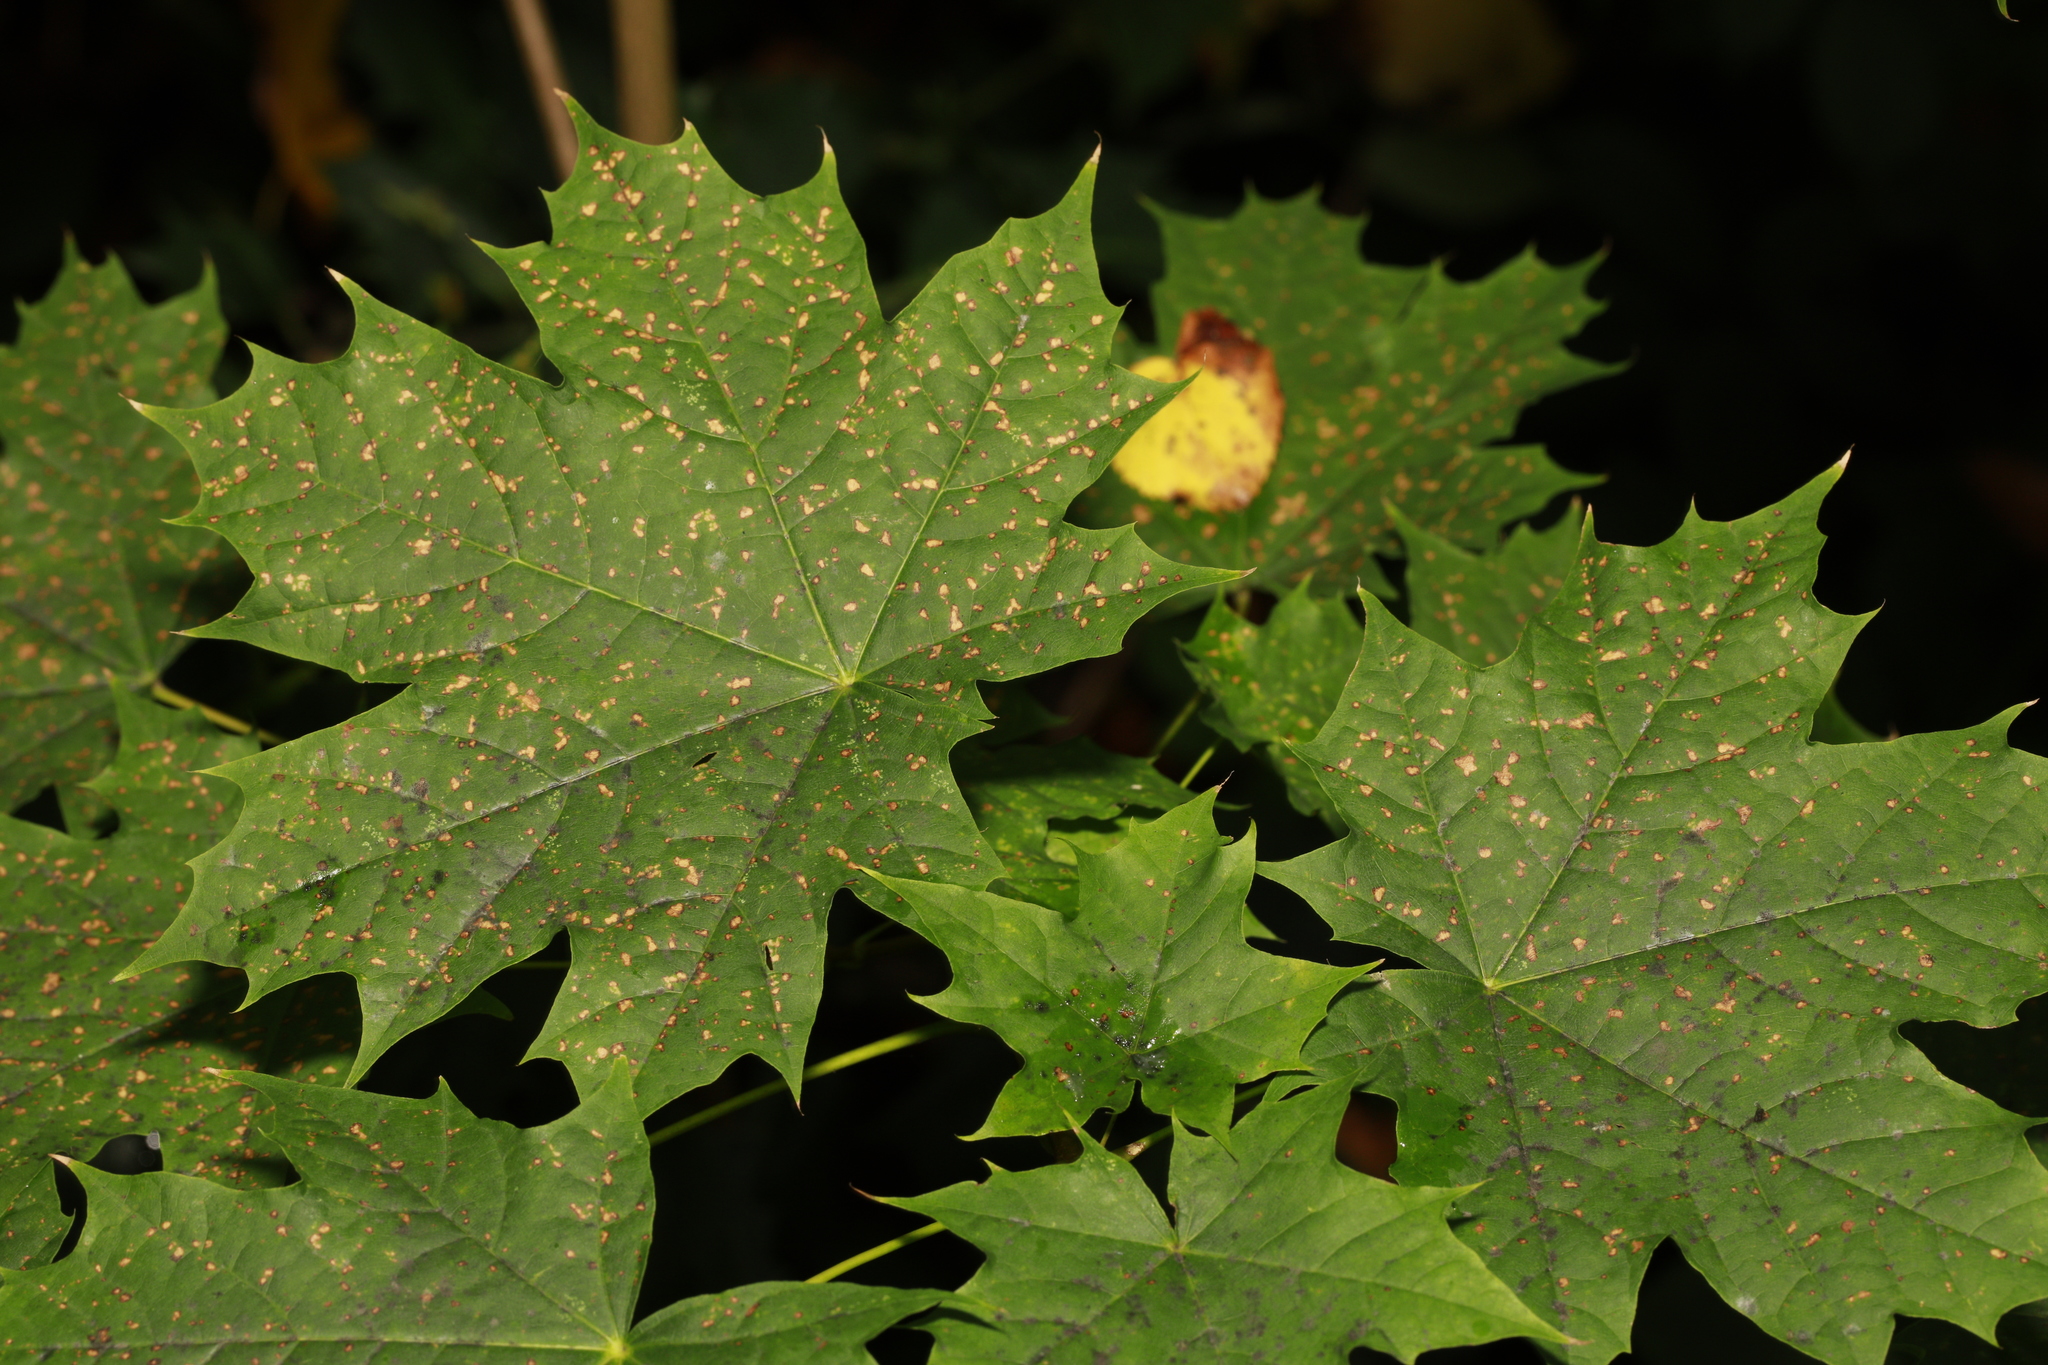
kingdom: Plantae
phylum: Tracheophyta
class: Magnoliopsida
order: Sapindales
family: Sapindaceae
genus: Acer
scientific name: Acer platanoides
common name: Norway maple
